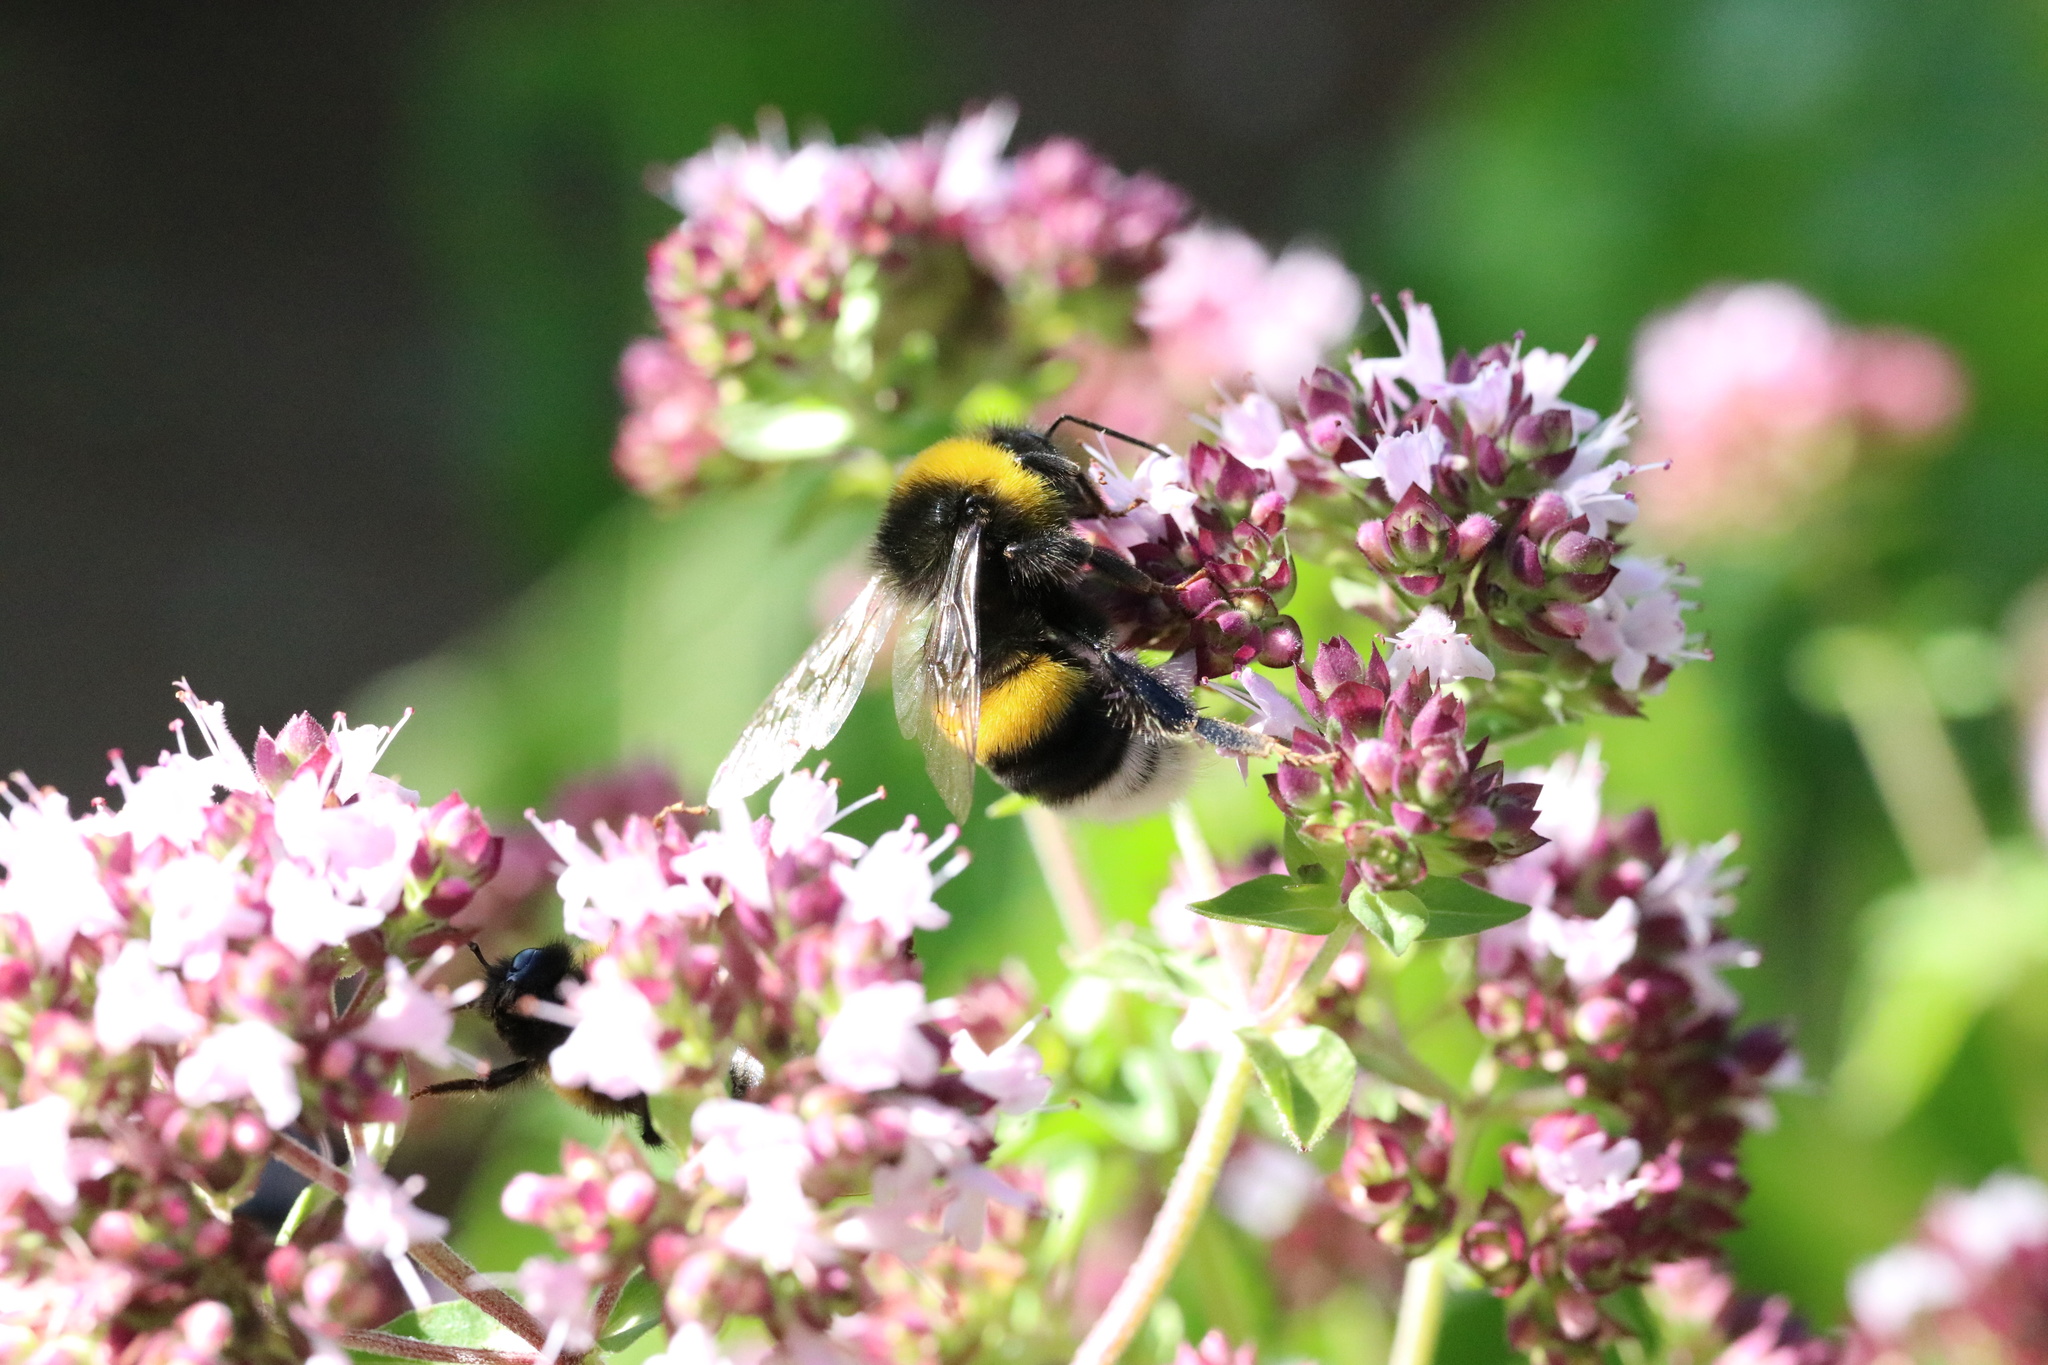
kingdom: Animalia
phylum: Arthropoda
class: Insecta
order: Hymenoptera
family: Apidae
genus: Bombus
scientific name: Bombus terrestris
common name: Buff-tailed bumblebee
